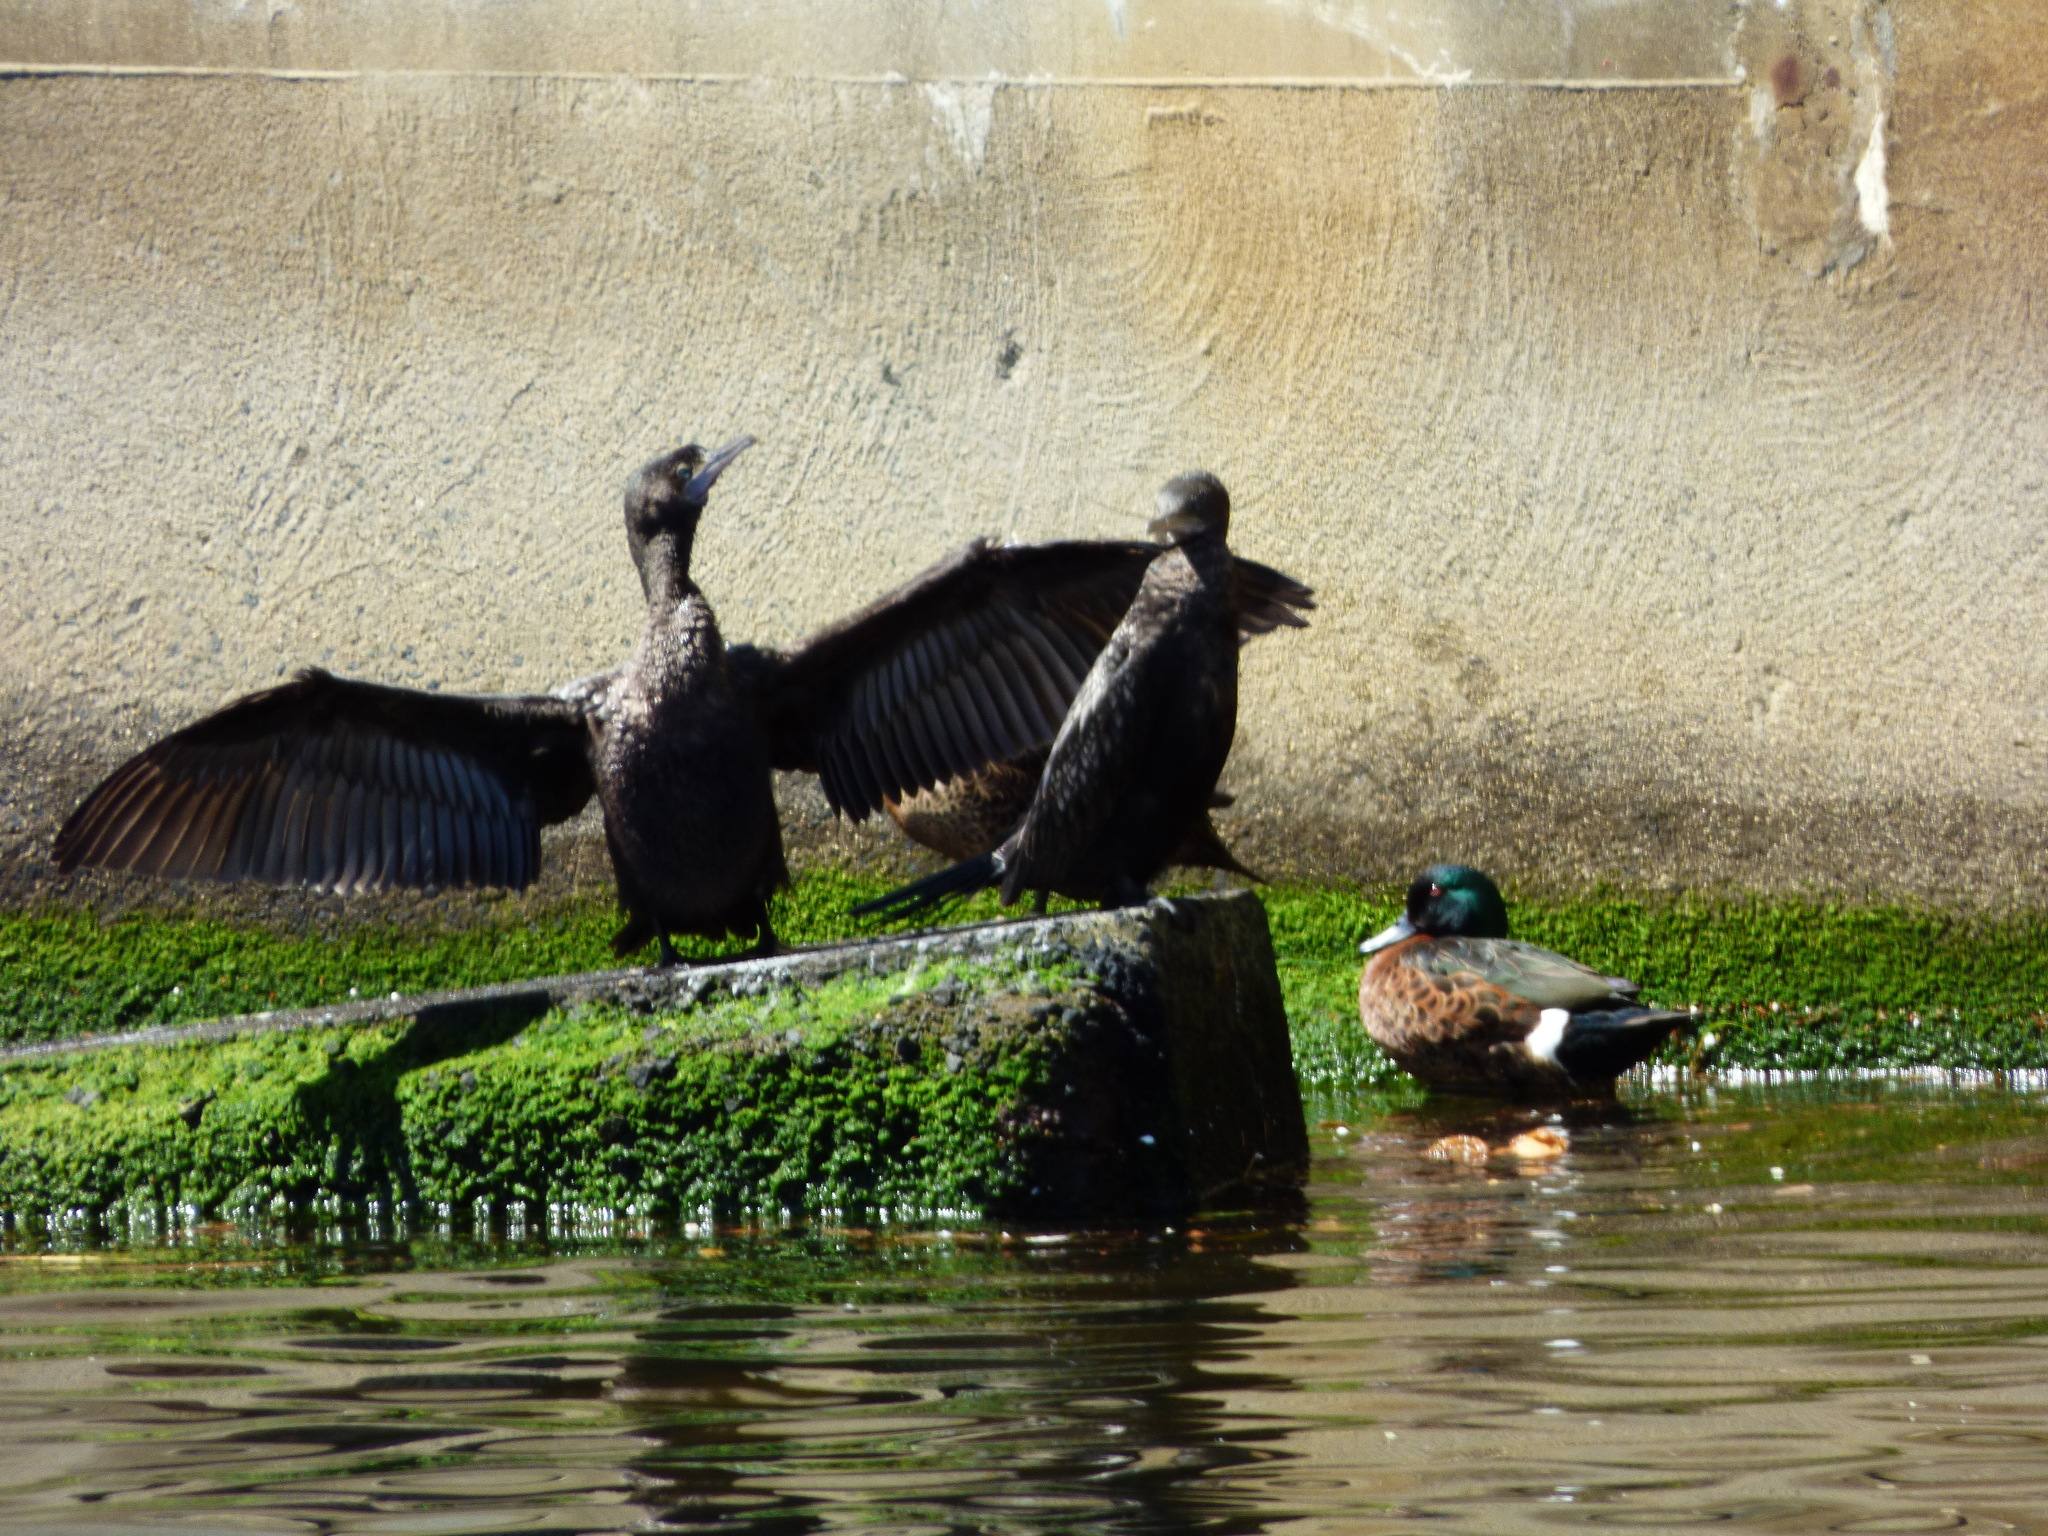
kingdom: Animalia
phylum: Chordata
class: Aves
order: Suliformes
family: Phalacrocoracidae
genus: Phalacrocorax
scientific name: Phalacrocorax sulcirostris
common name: Little black cormorant
